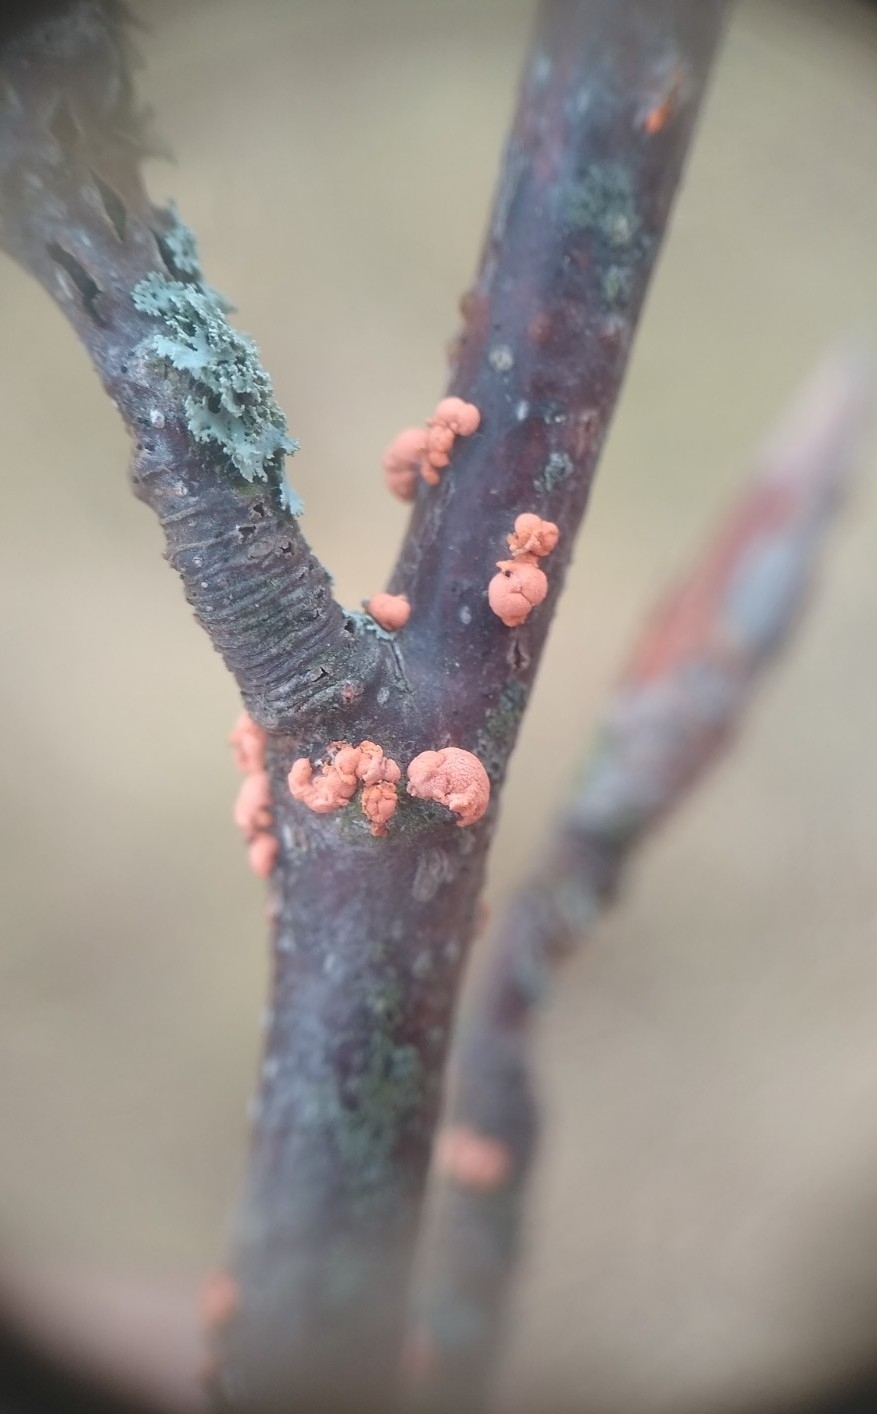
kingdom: Fungi
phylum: Ascomycota
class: Sordariomycetes
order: Hypocreales
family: Nectriaceae
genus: Nectria
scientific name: Nectria cinnabarina
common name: Coral spot
